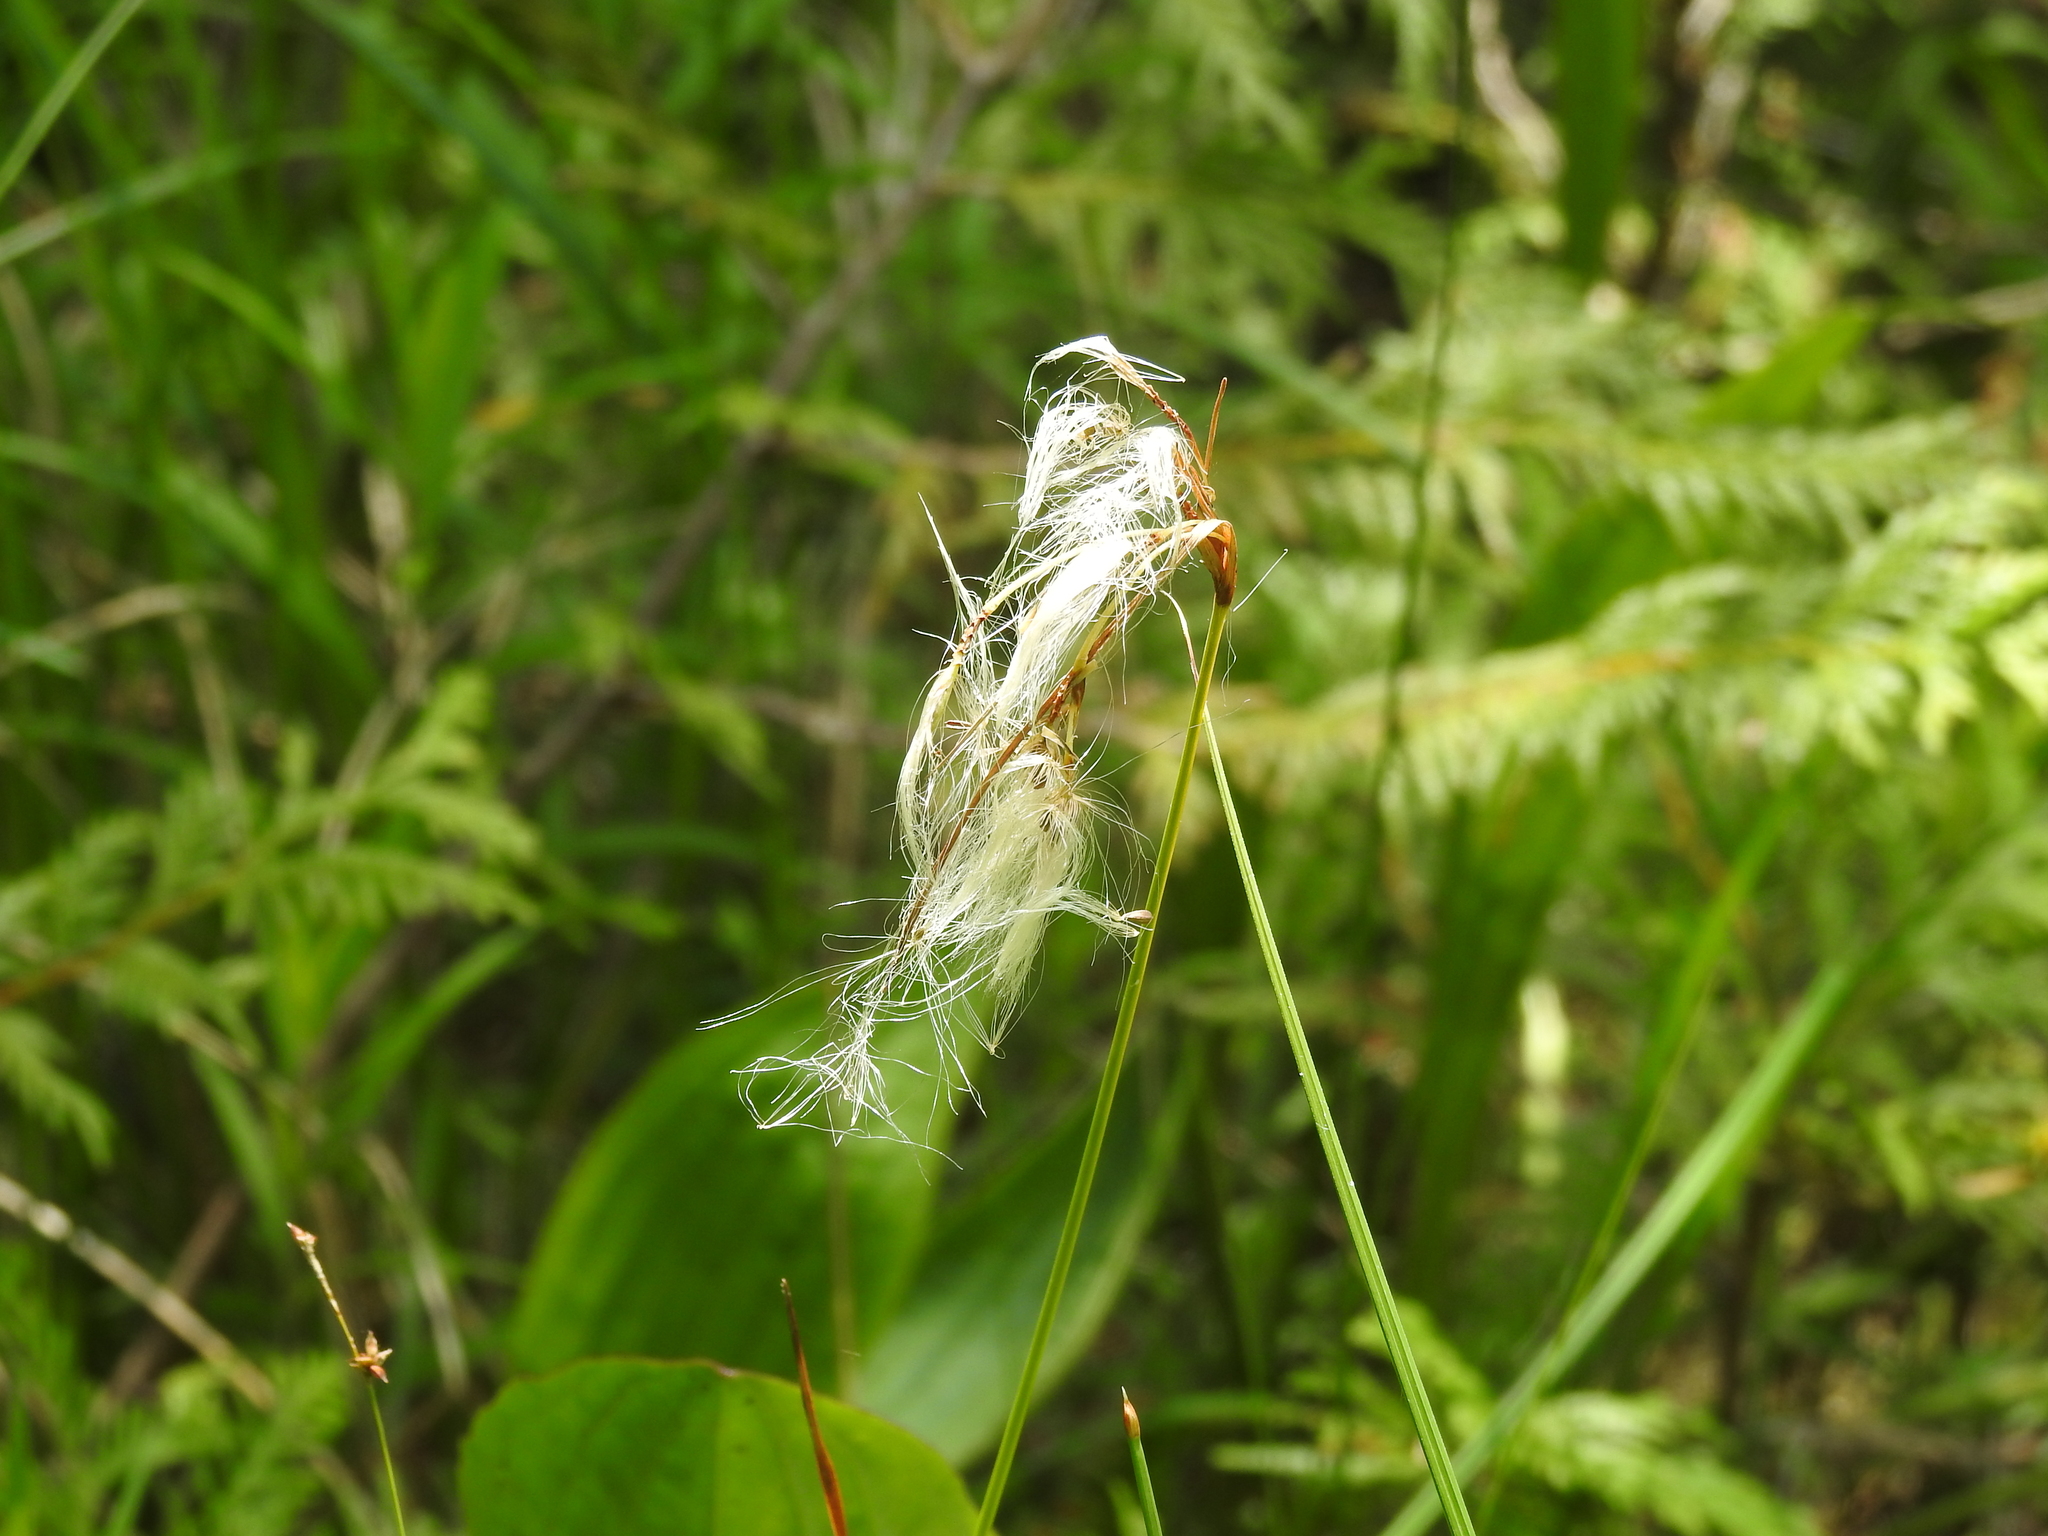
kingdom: Plantae
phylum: Tracheophyta
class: Liliopsida
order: Poales
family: Cyperaceae
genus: Eriophorum
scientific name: Eriophorum viridicarinatum
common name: Green-keeled cottongrass
